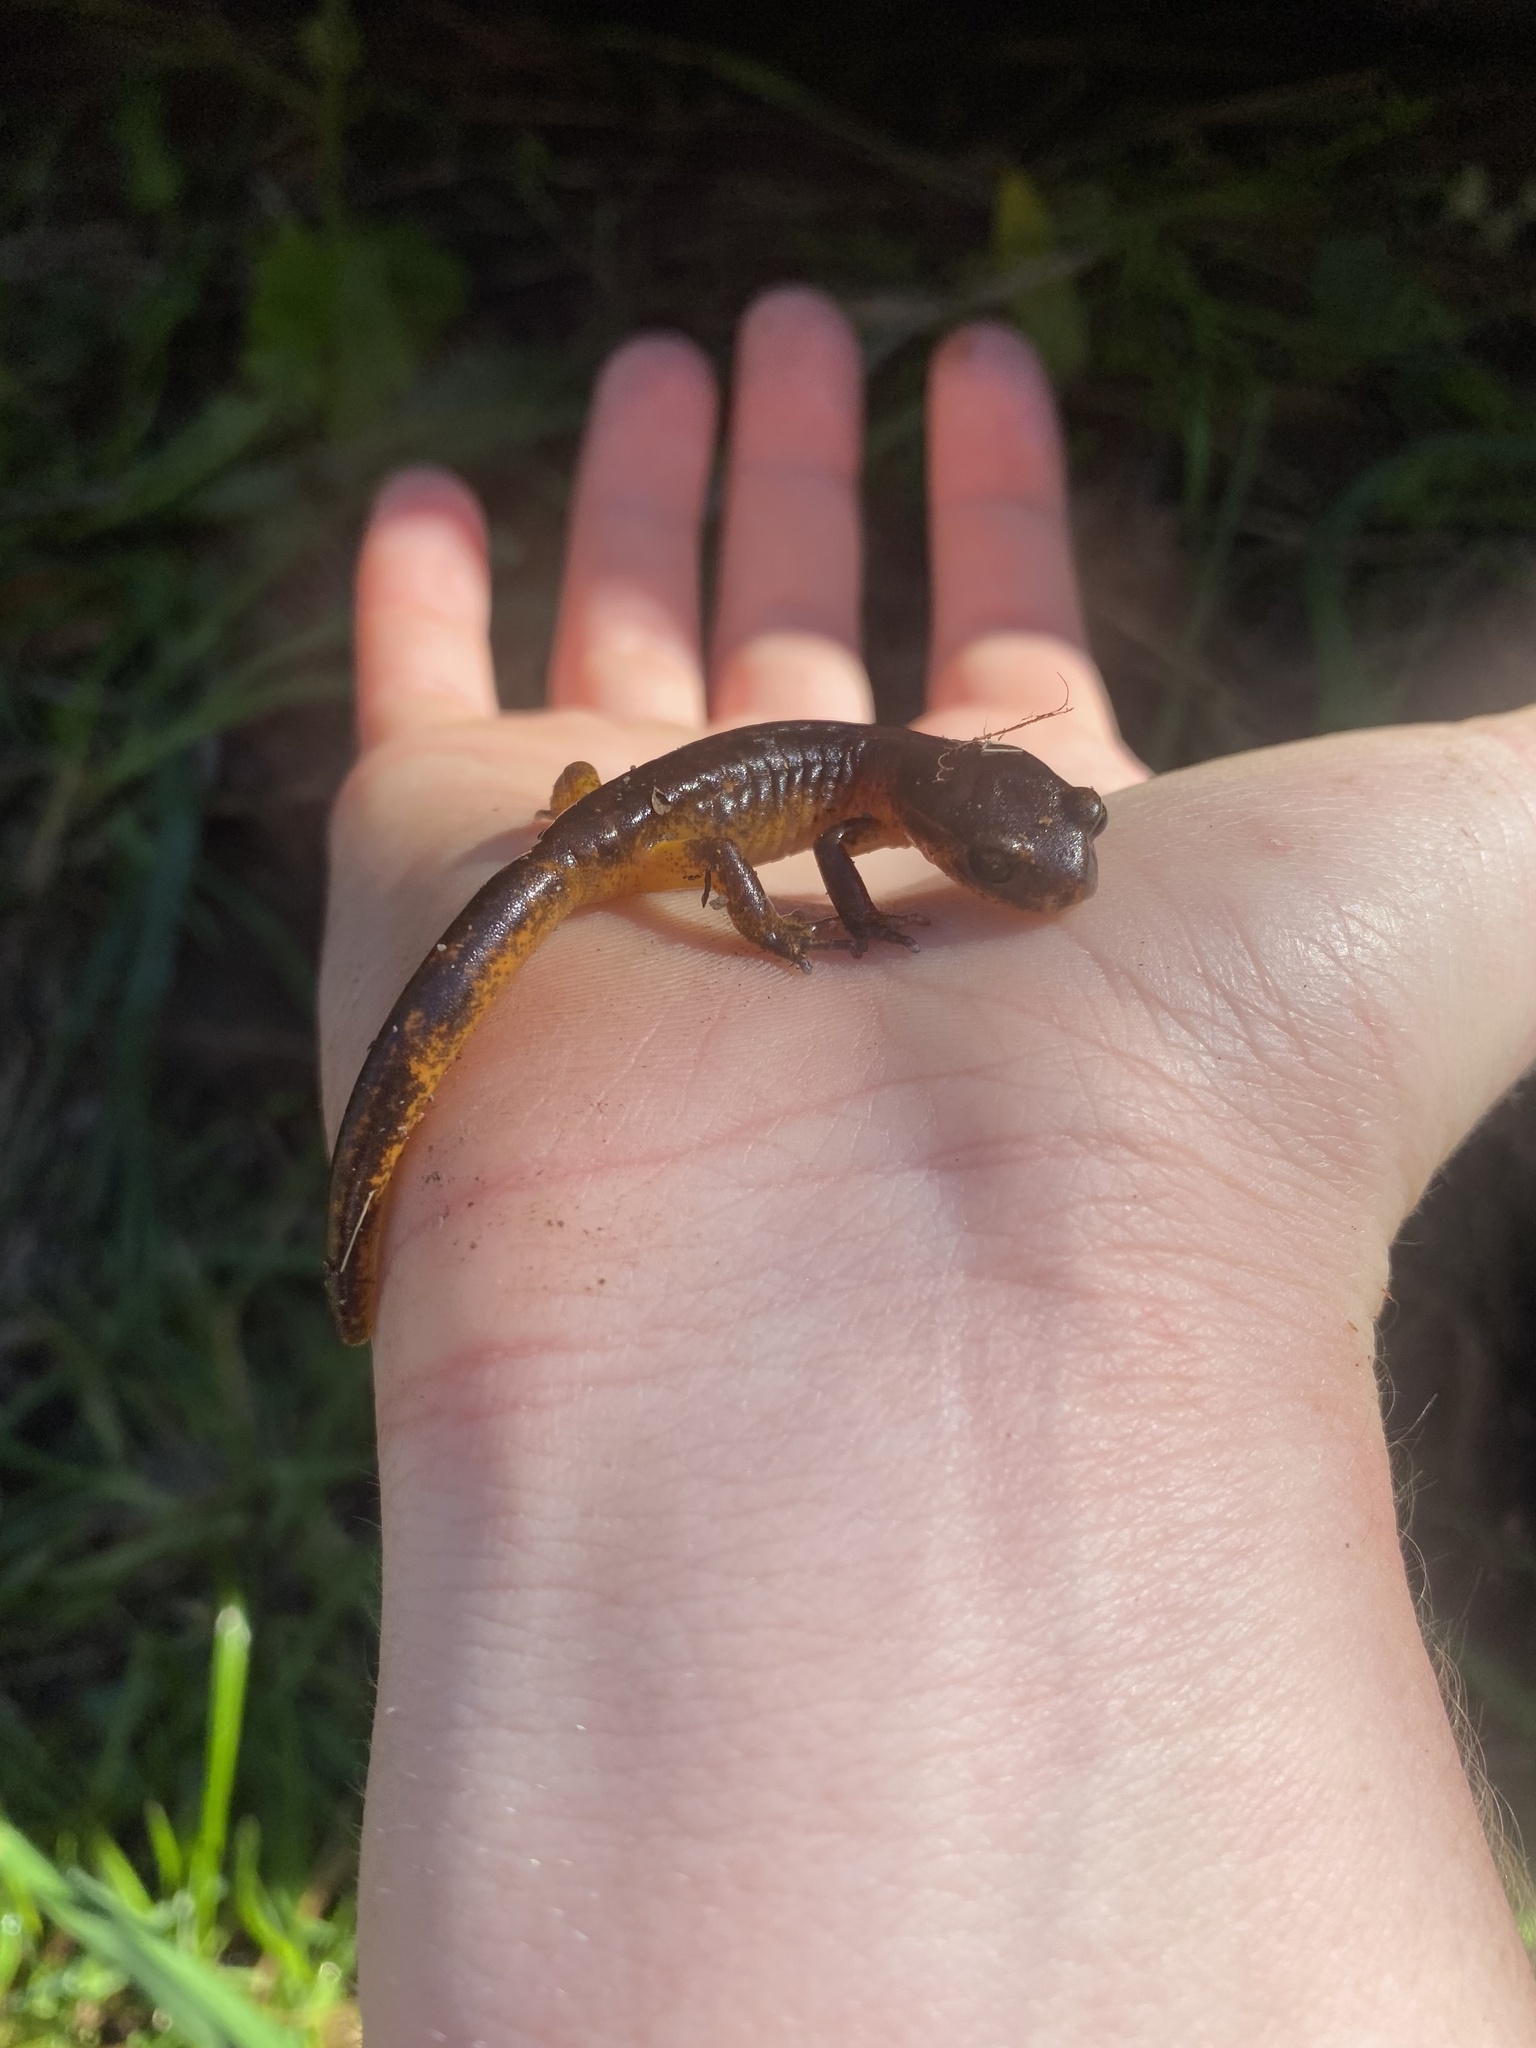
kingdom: Animalia
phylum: Chordata
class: Amphibia
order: Caudata
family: Plethodontidae
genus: Ensatina
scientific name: Ensatina eschscholtzii
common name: Ensatina
